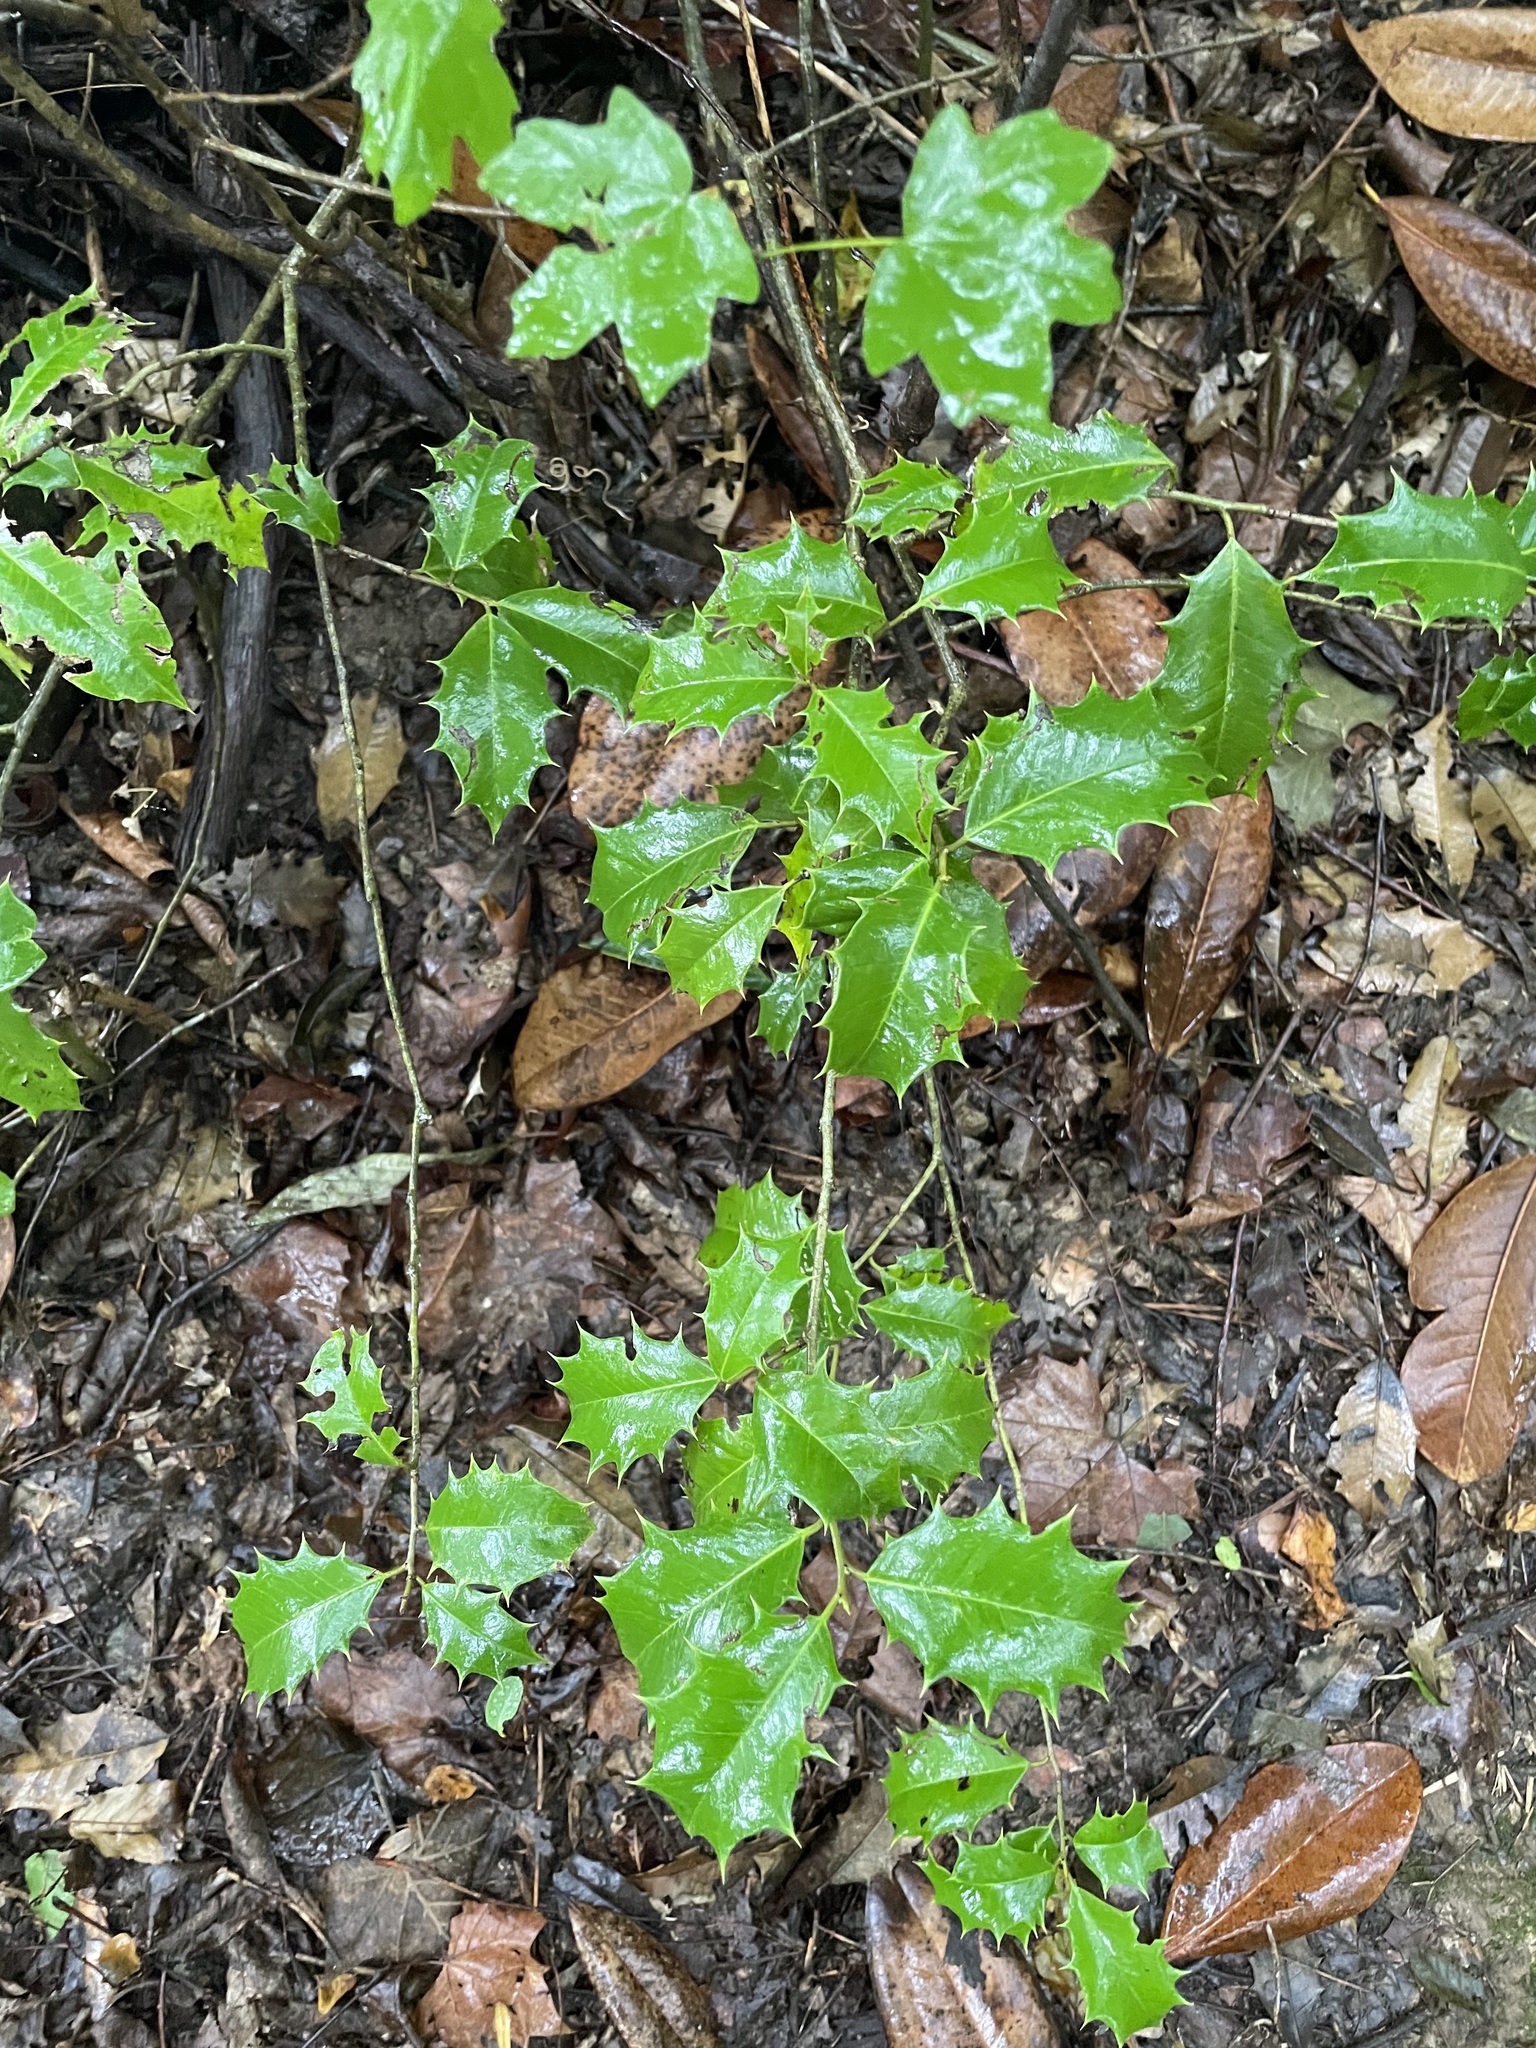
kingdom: Plantae
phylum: Tracheophyta
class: Magnoliopsida
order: Aquifoliales
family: Aquifoliaceae
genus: Ilex
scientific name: Ilex opaca
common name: American holly
